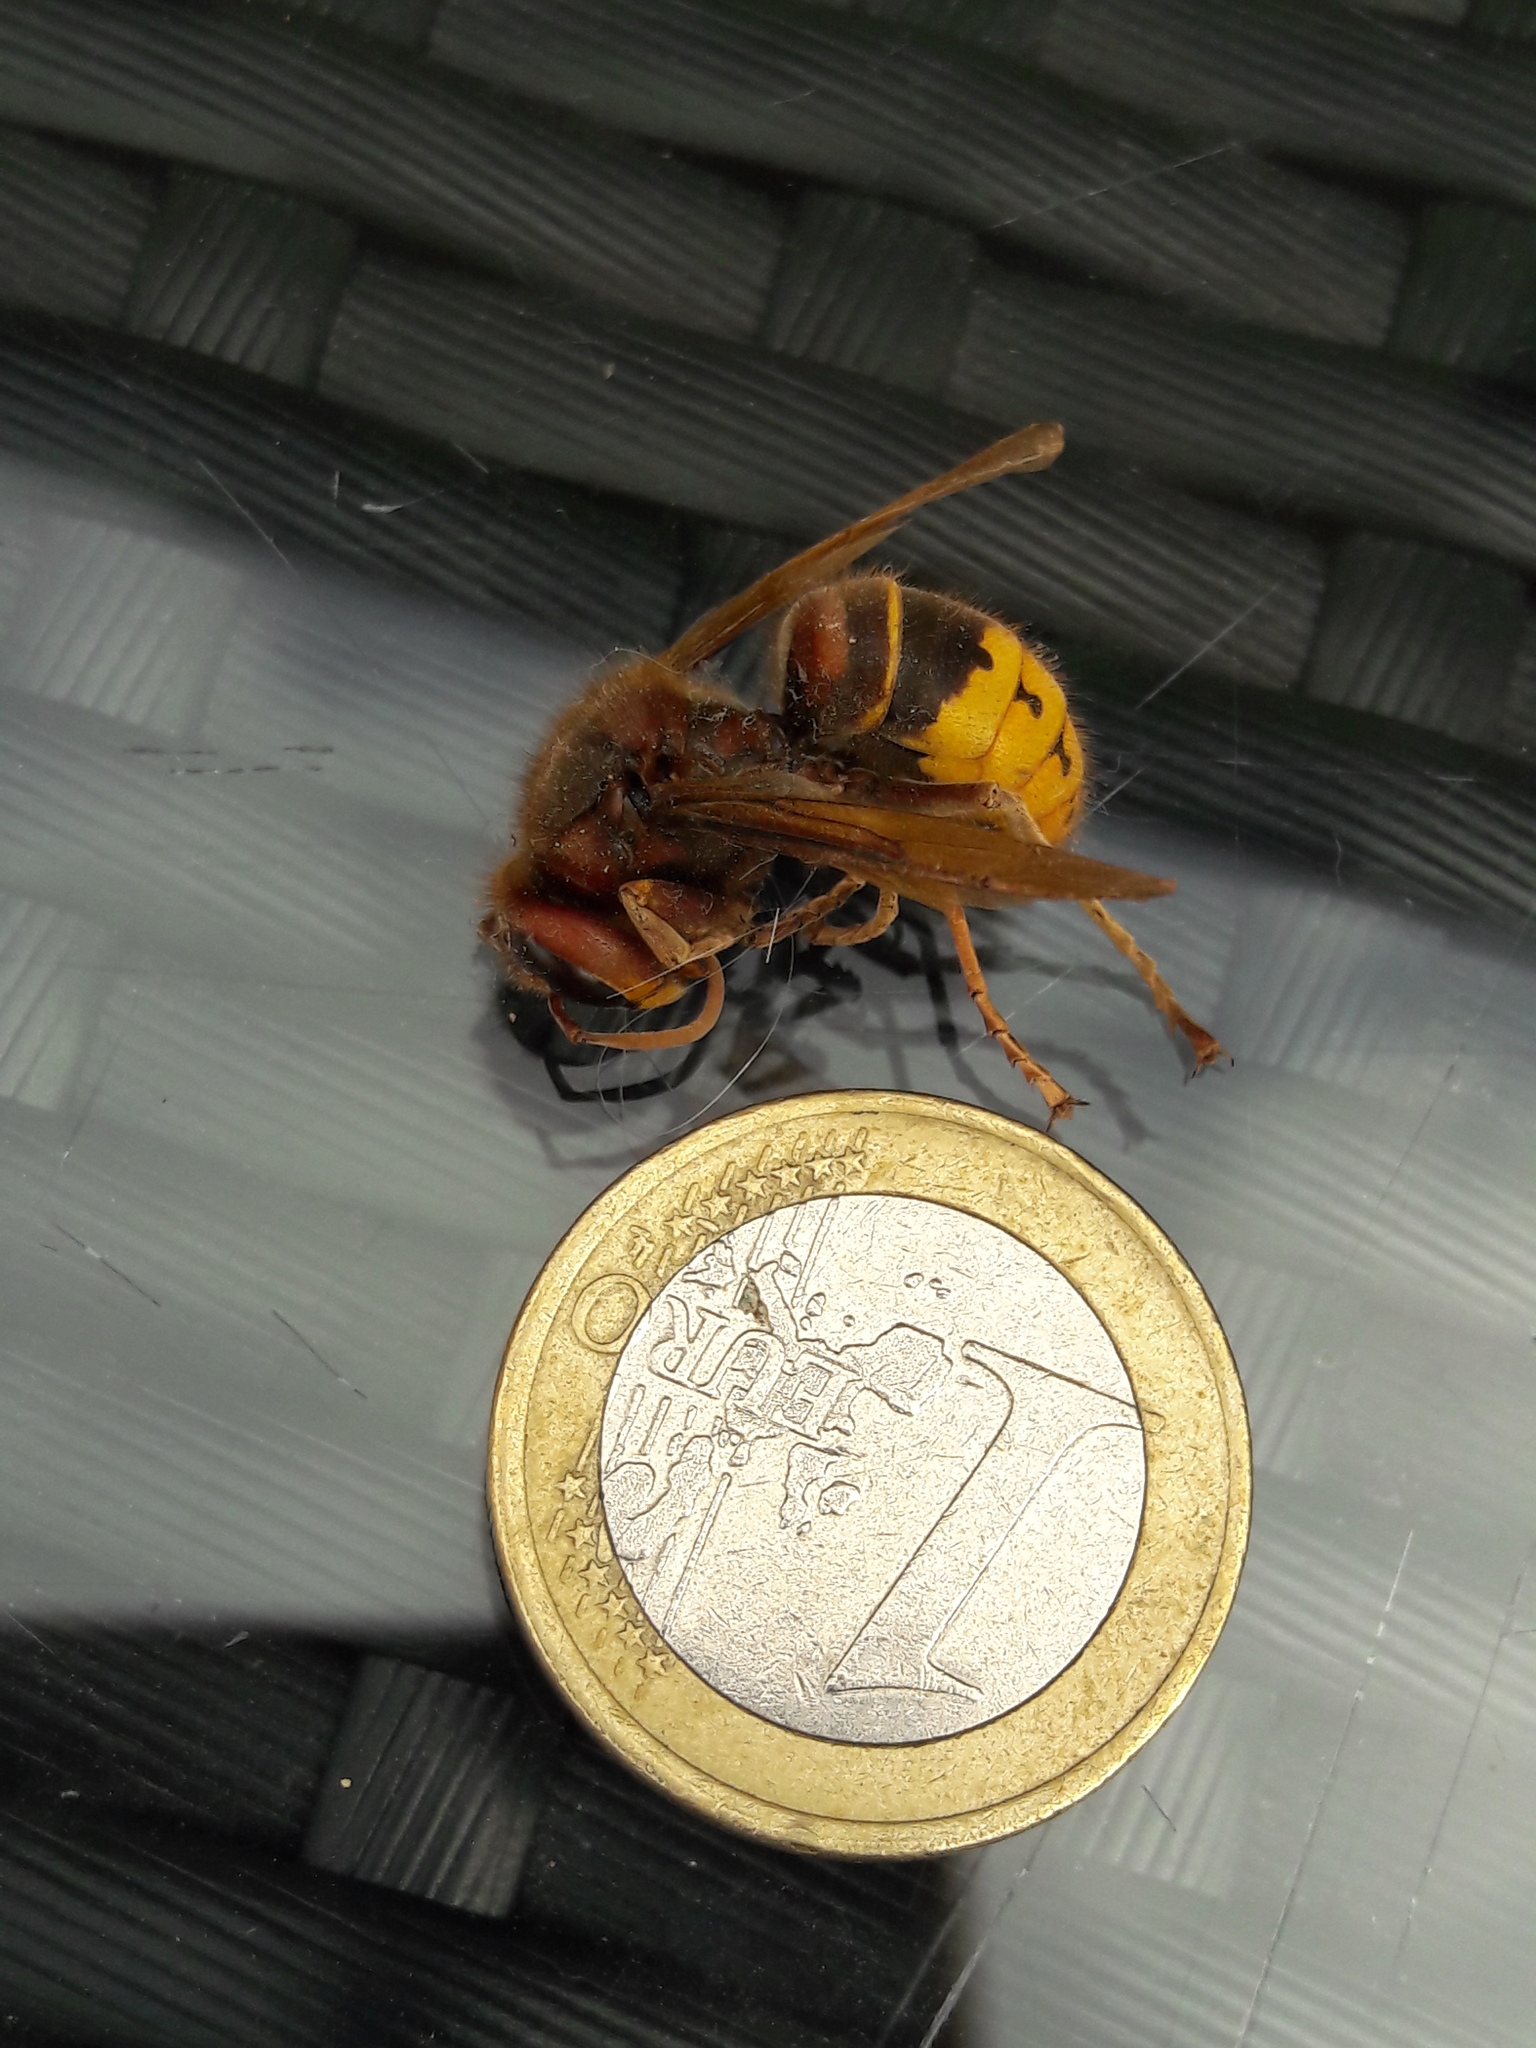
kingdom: Animalia
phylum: Arthropoda
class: Insecta
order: Hymenoptera
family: Vespidae
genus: Vespa
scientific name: Vespa crabro
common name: Hornet
